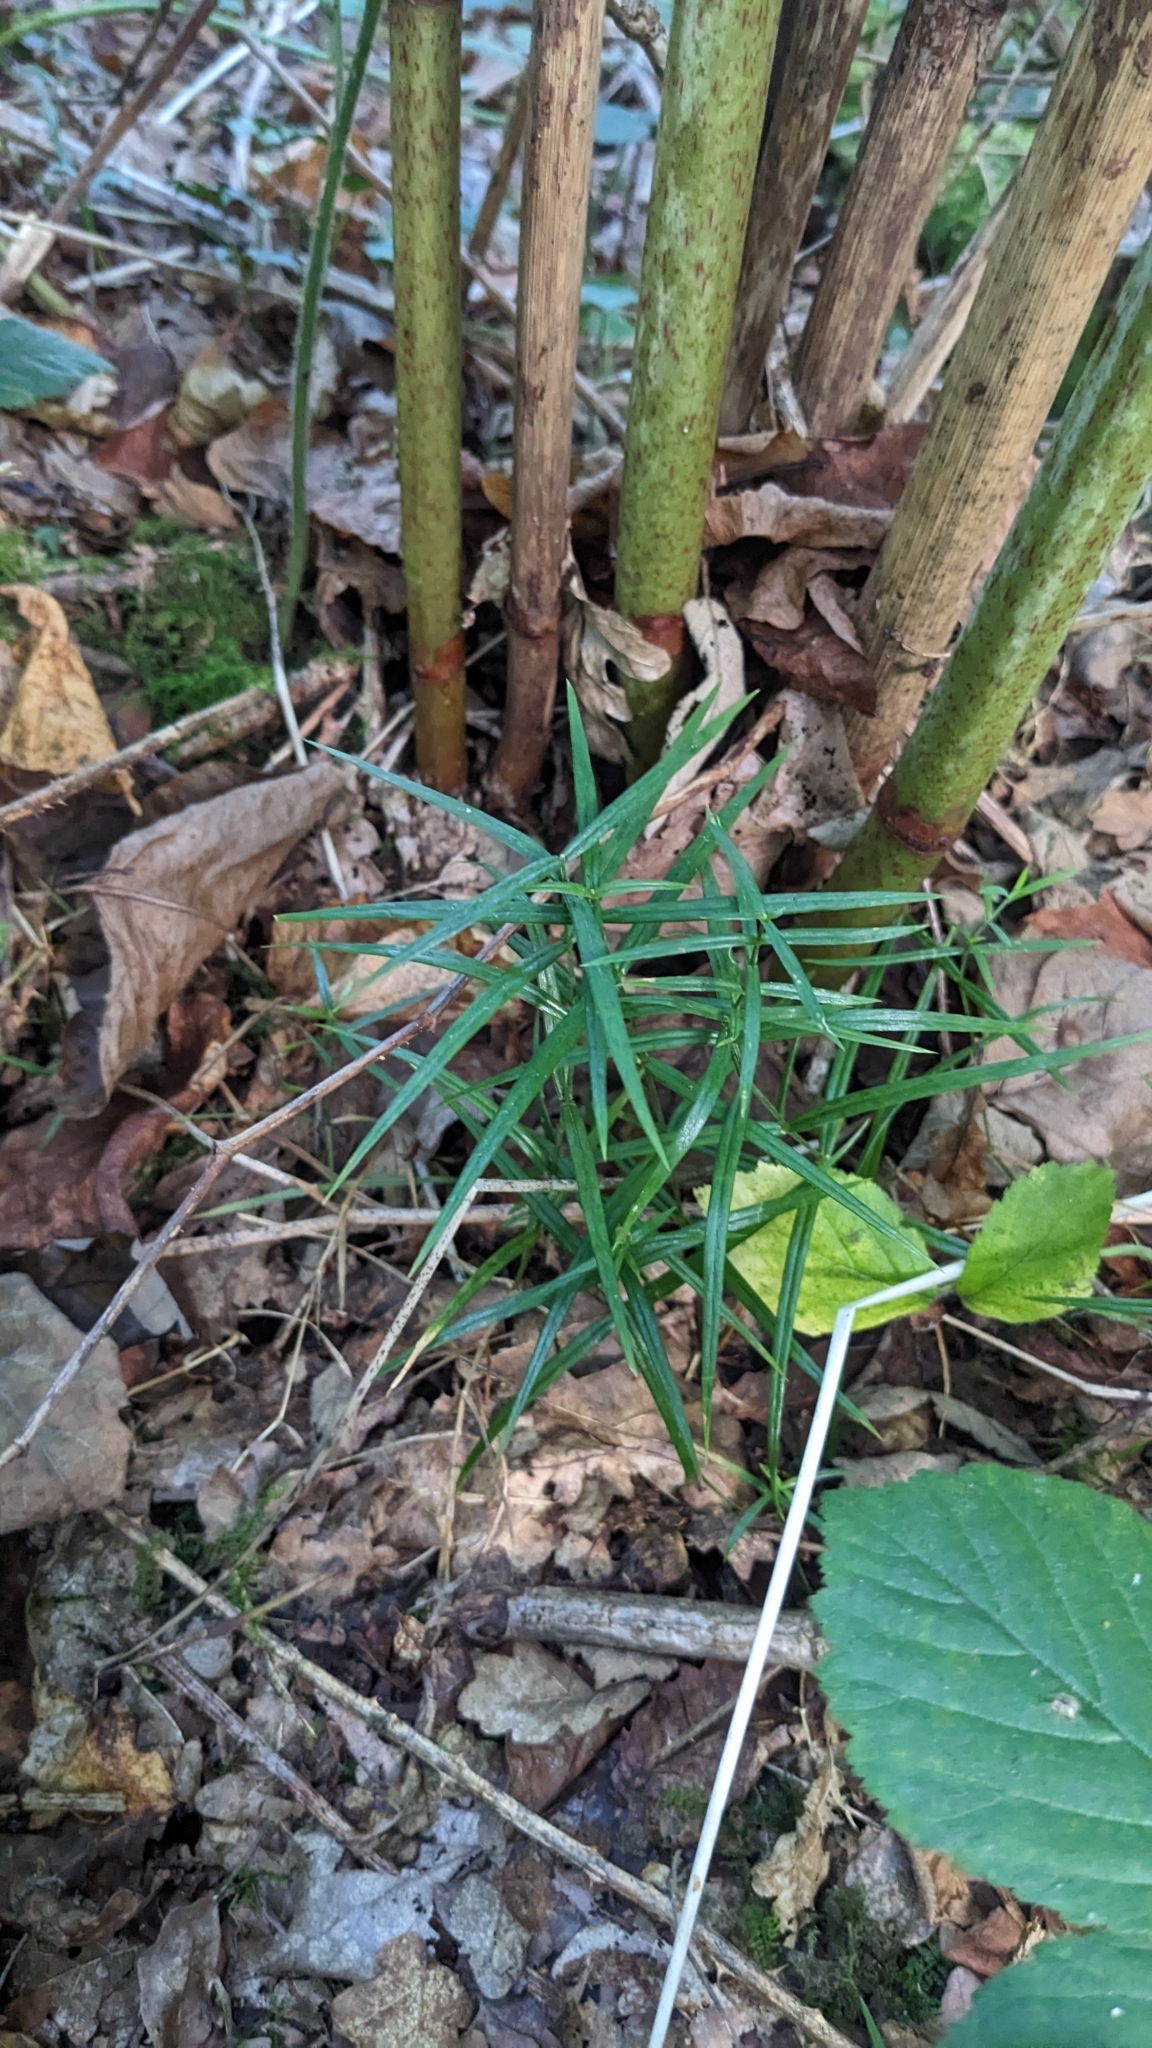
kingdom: Plantae
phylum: Tracheophyta
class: Magnoliopsida
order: Caryophyllales
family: Caryophyllaceae
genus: Rabelera
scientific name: Rabelera holostea
